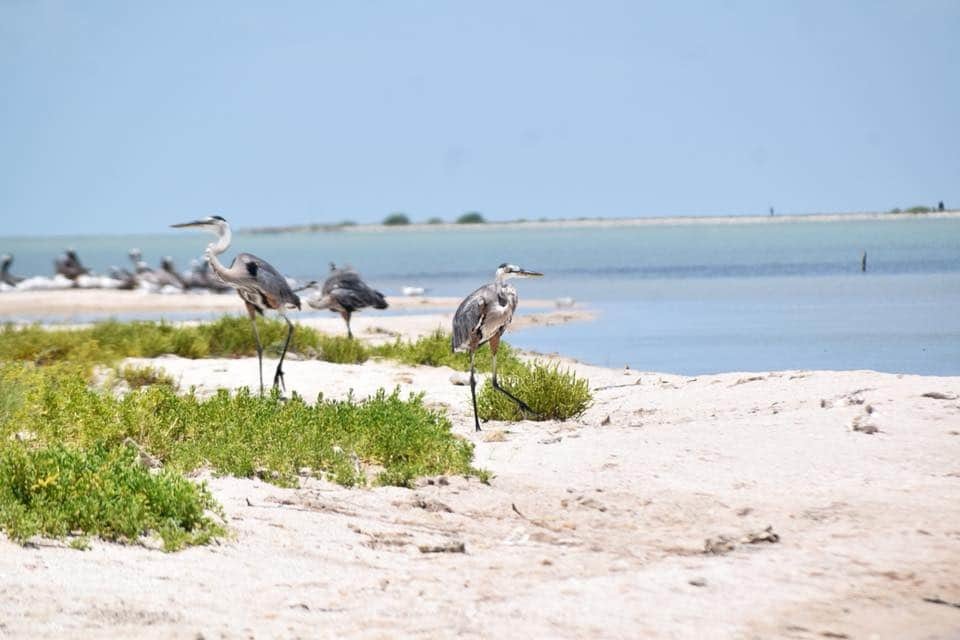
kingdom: Animalia
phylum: Chordata
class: Aves
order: Pelecaniformes
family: Ardeidae
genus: Ardea
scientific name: Ardea herodias
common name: Great blue heron
